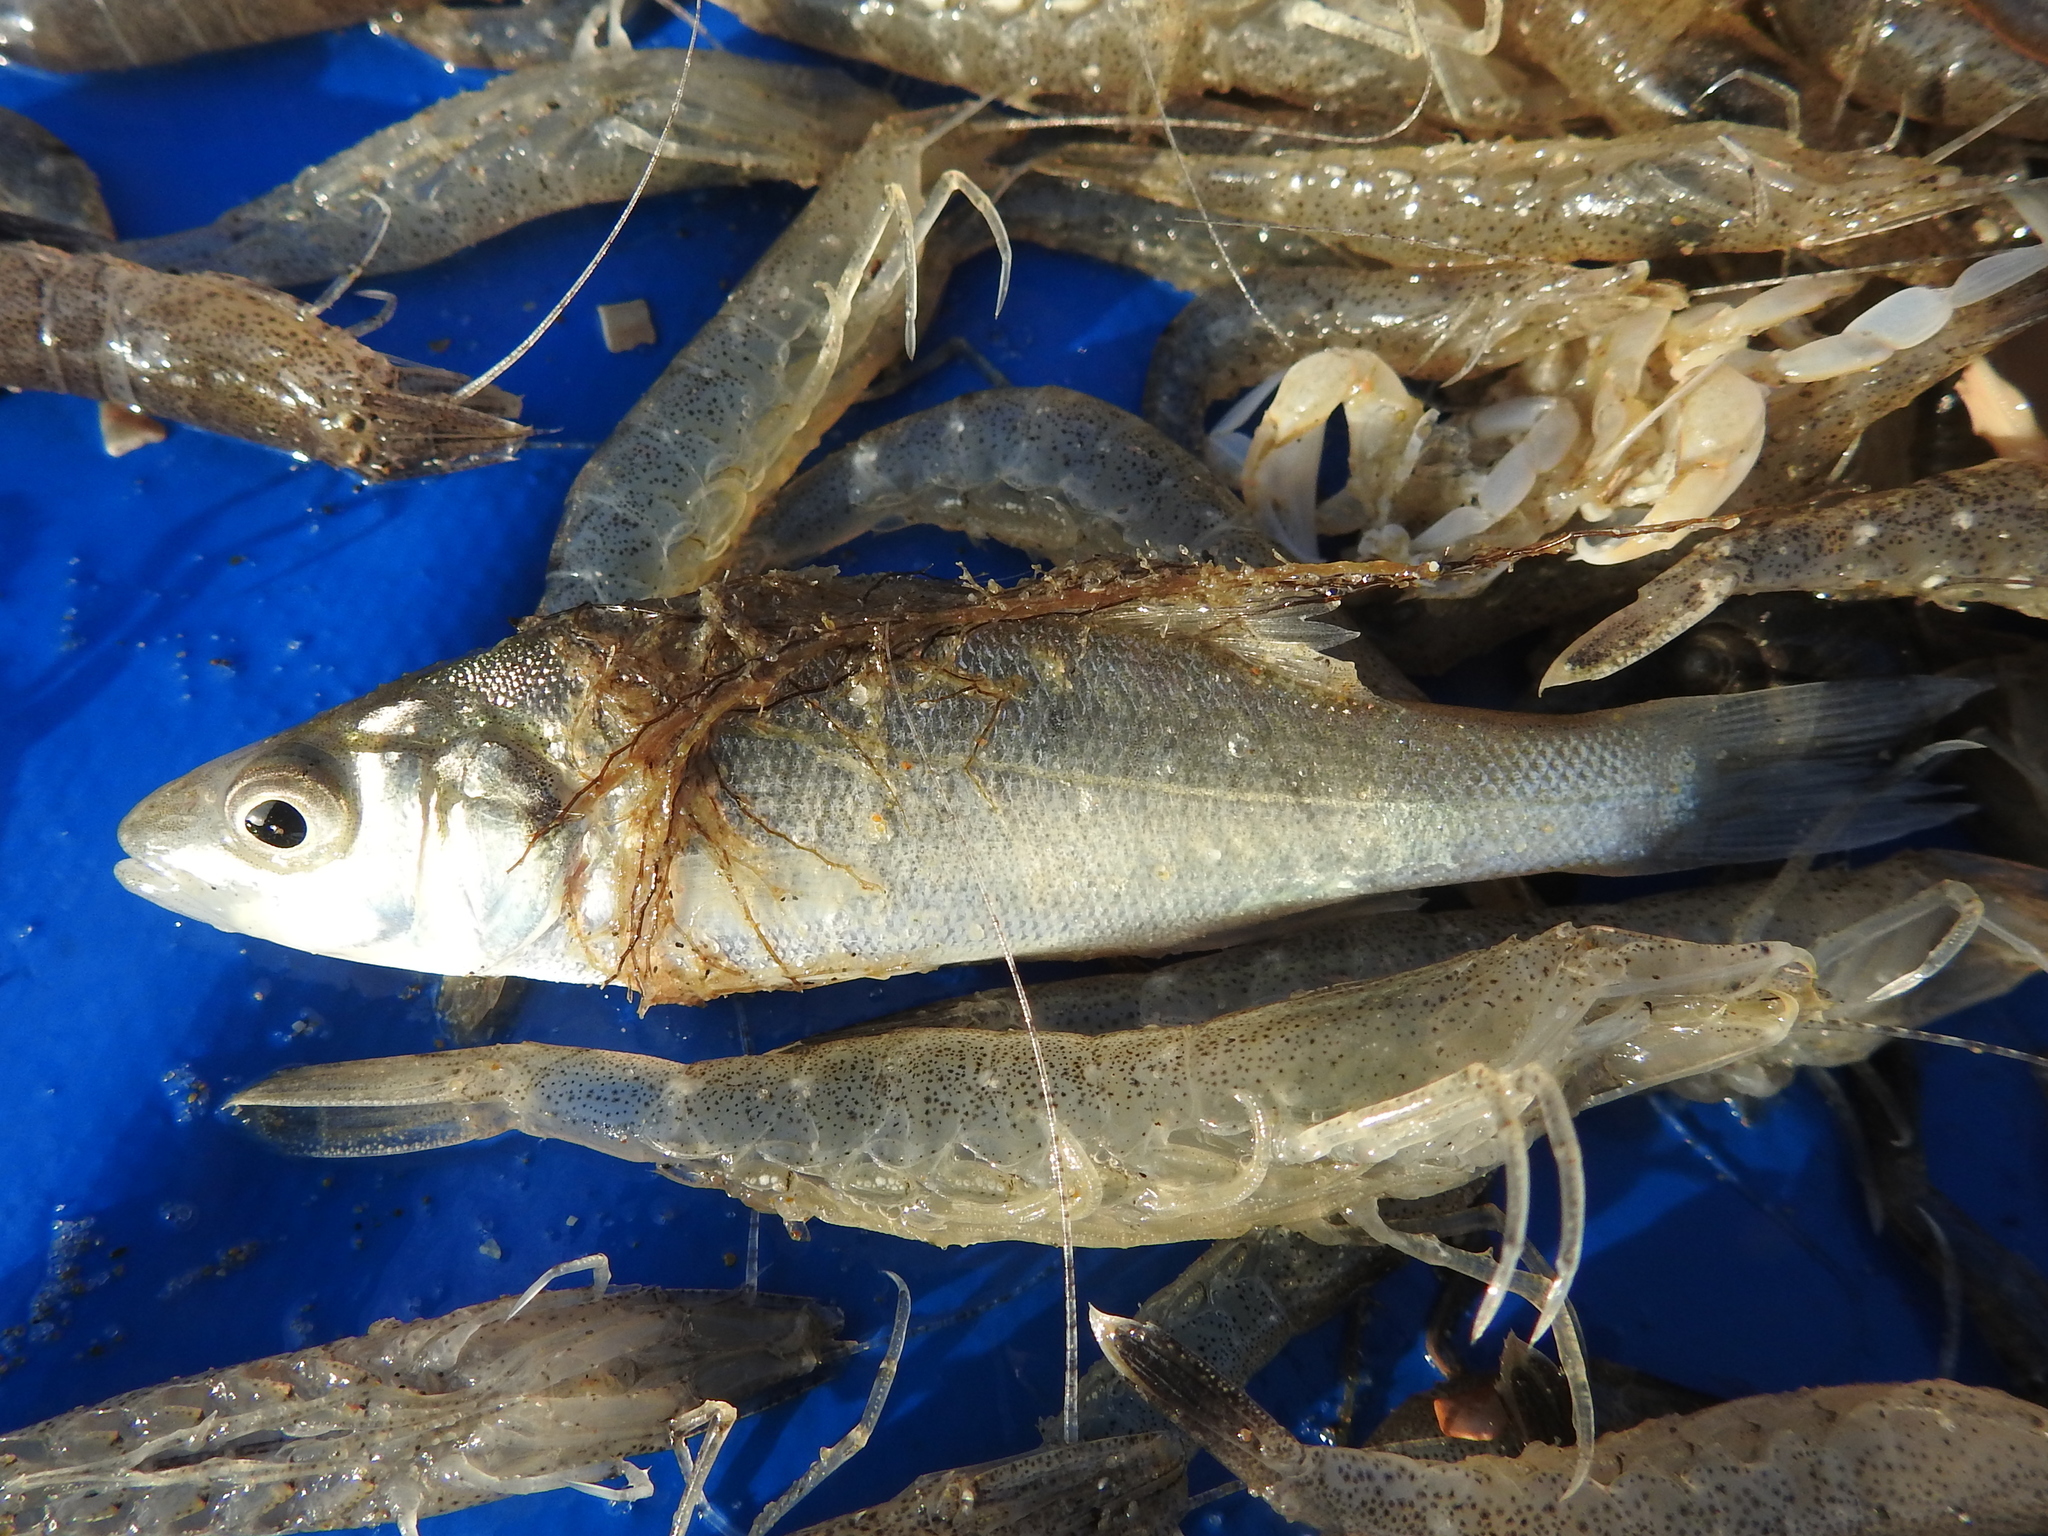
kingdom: Animalia
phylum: Chordata
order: Perciformes
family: Moronidae
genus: Dicentrarchus
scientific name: Dicentrarchus labrax
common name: European seabass
